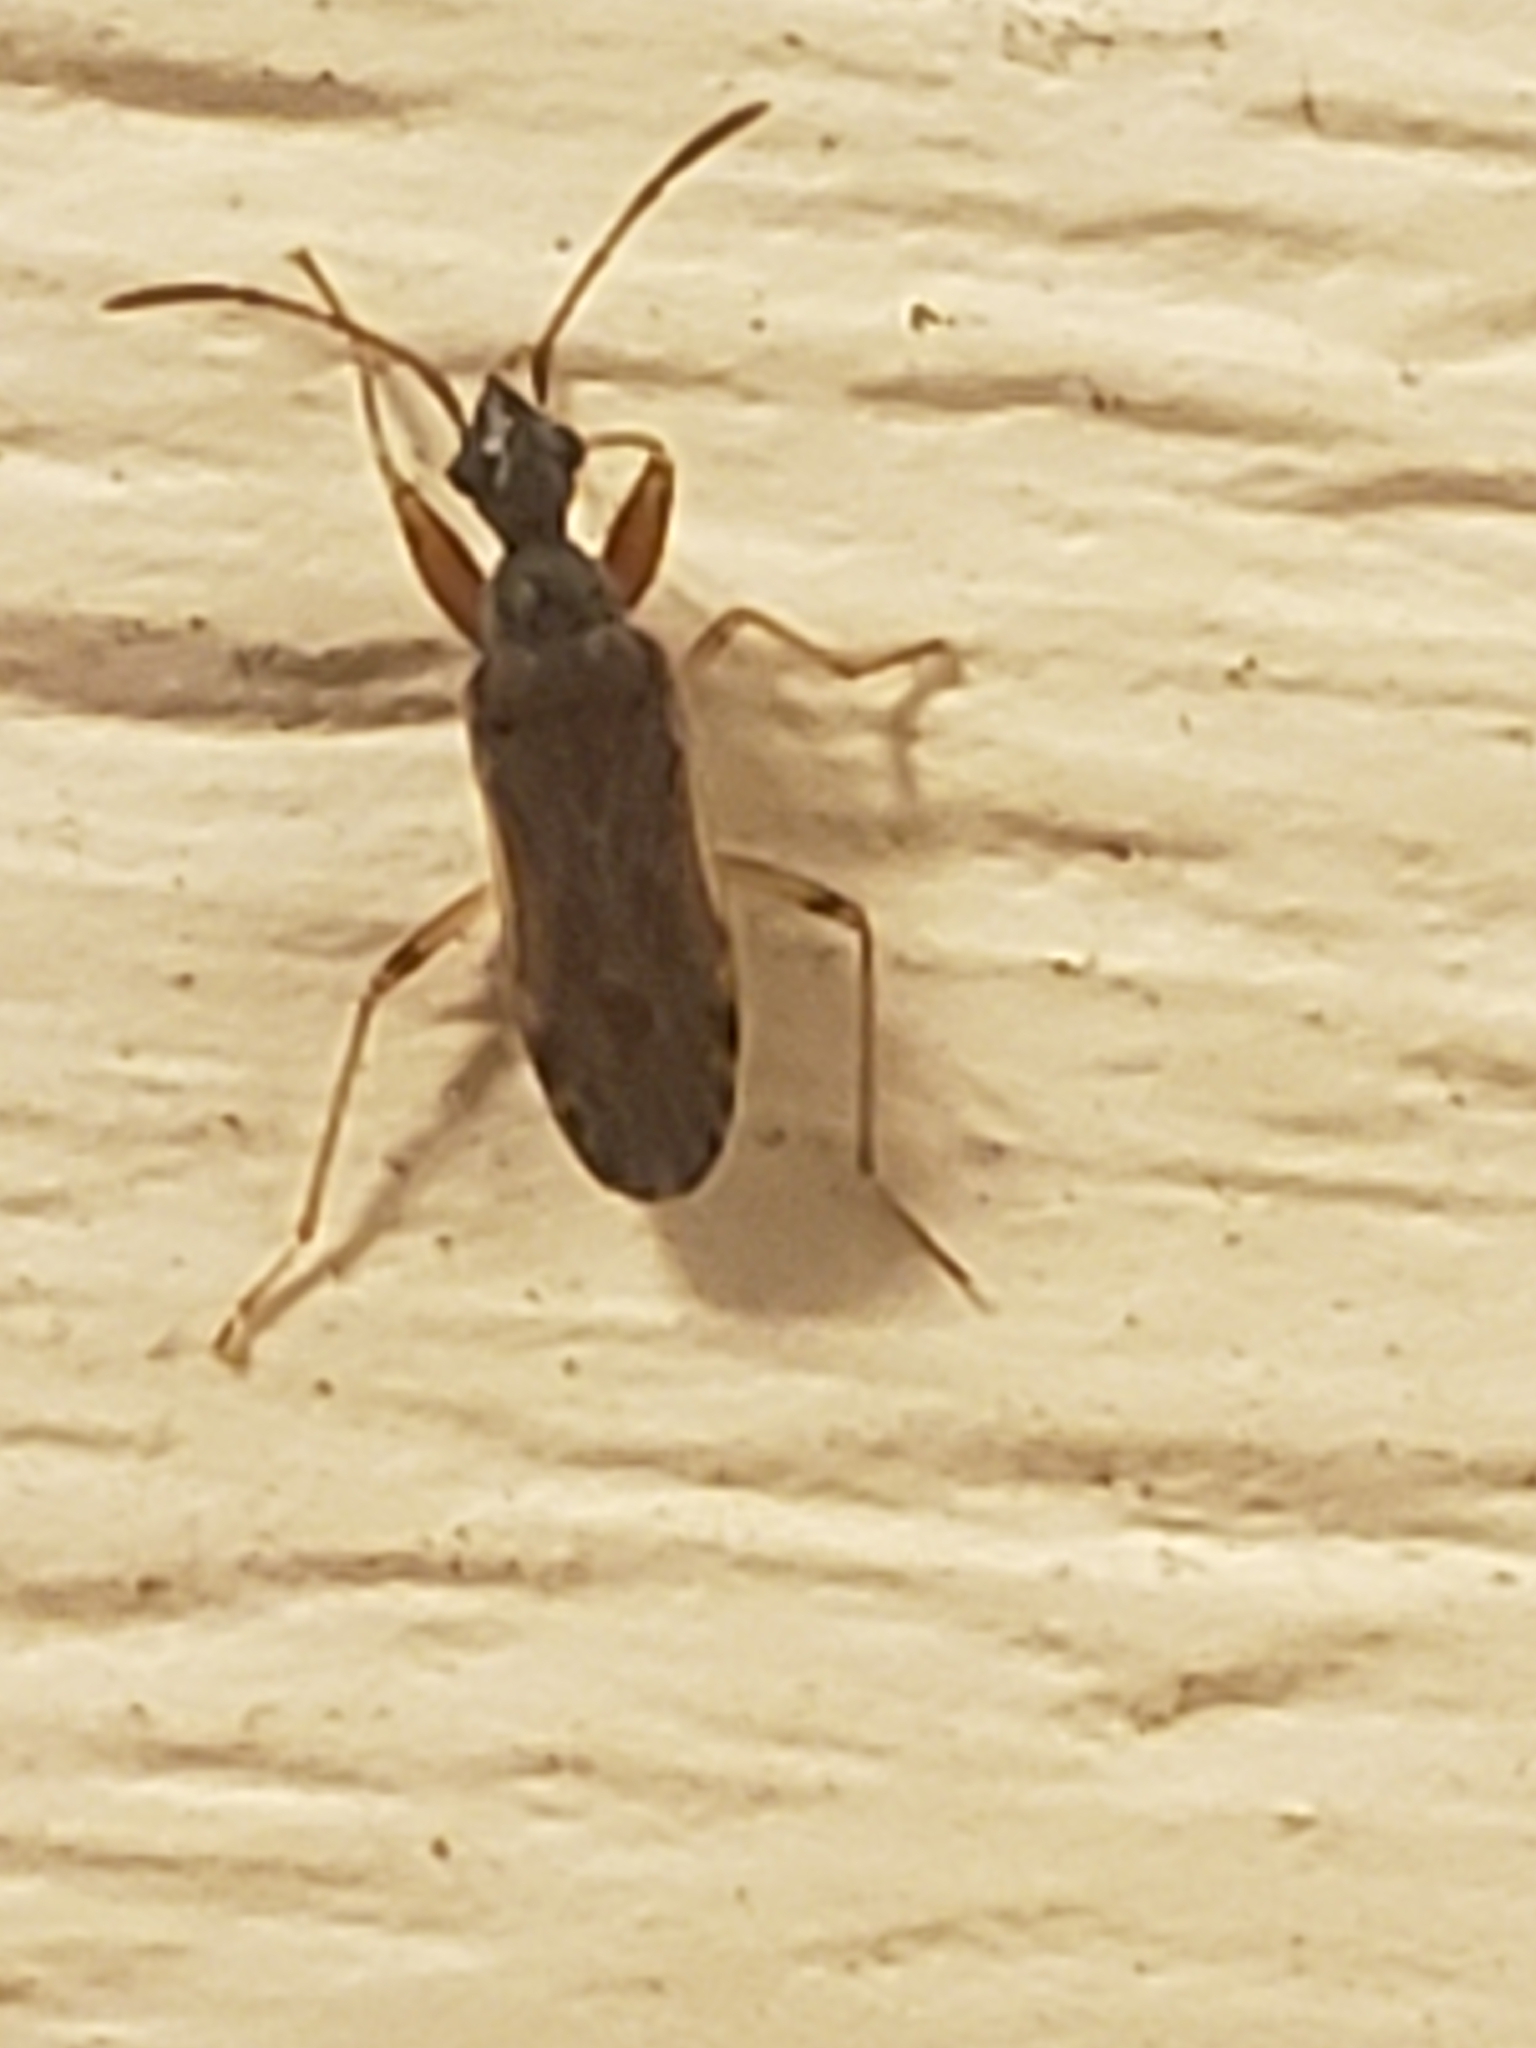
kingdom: Animalia
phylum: Arthropoda
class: Insecta
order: Hemiptera
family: Rhyparochromidae
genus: Heraeus
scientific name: Heraeus plebejus
